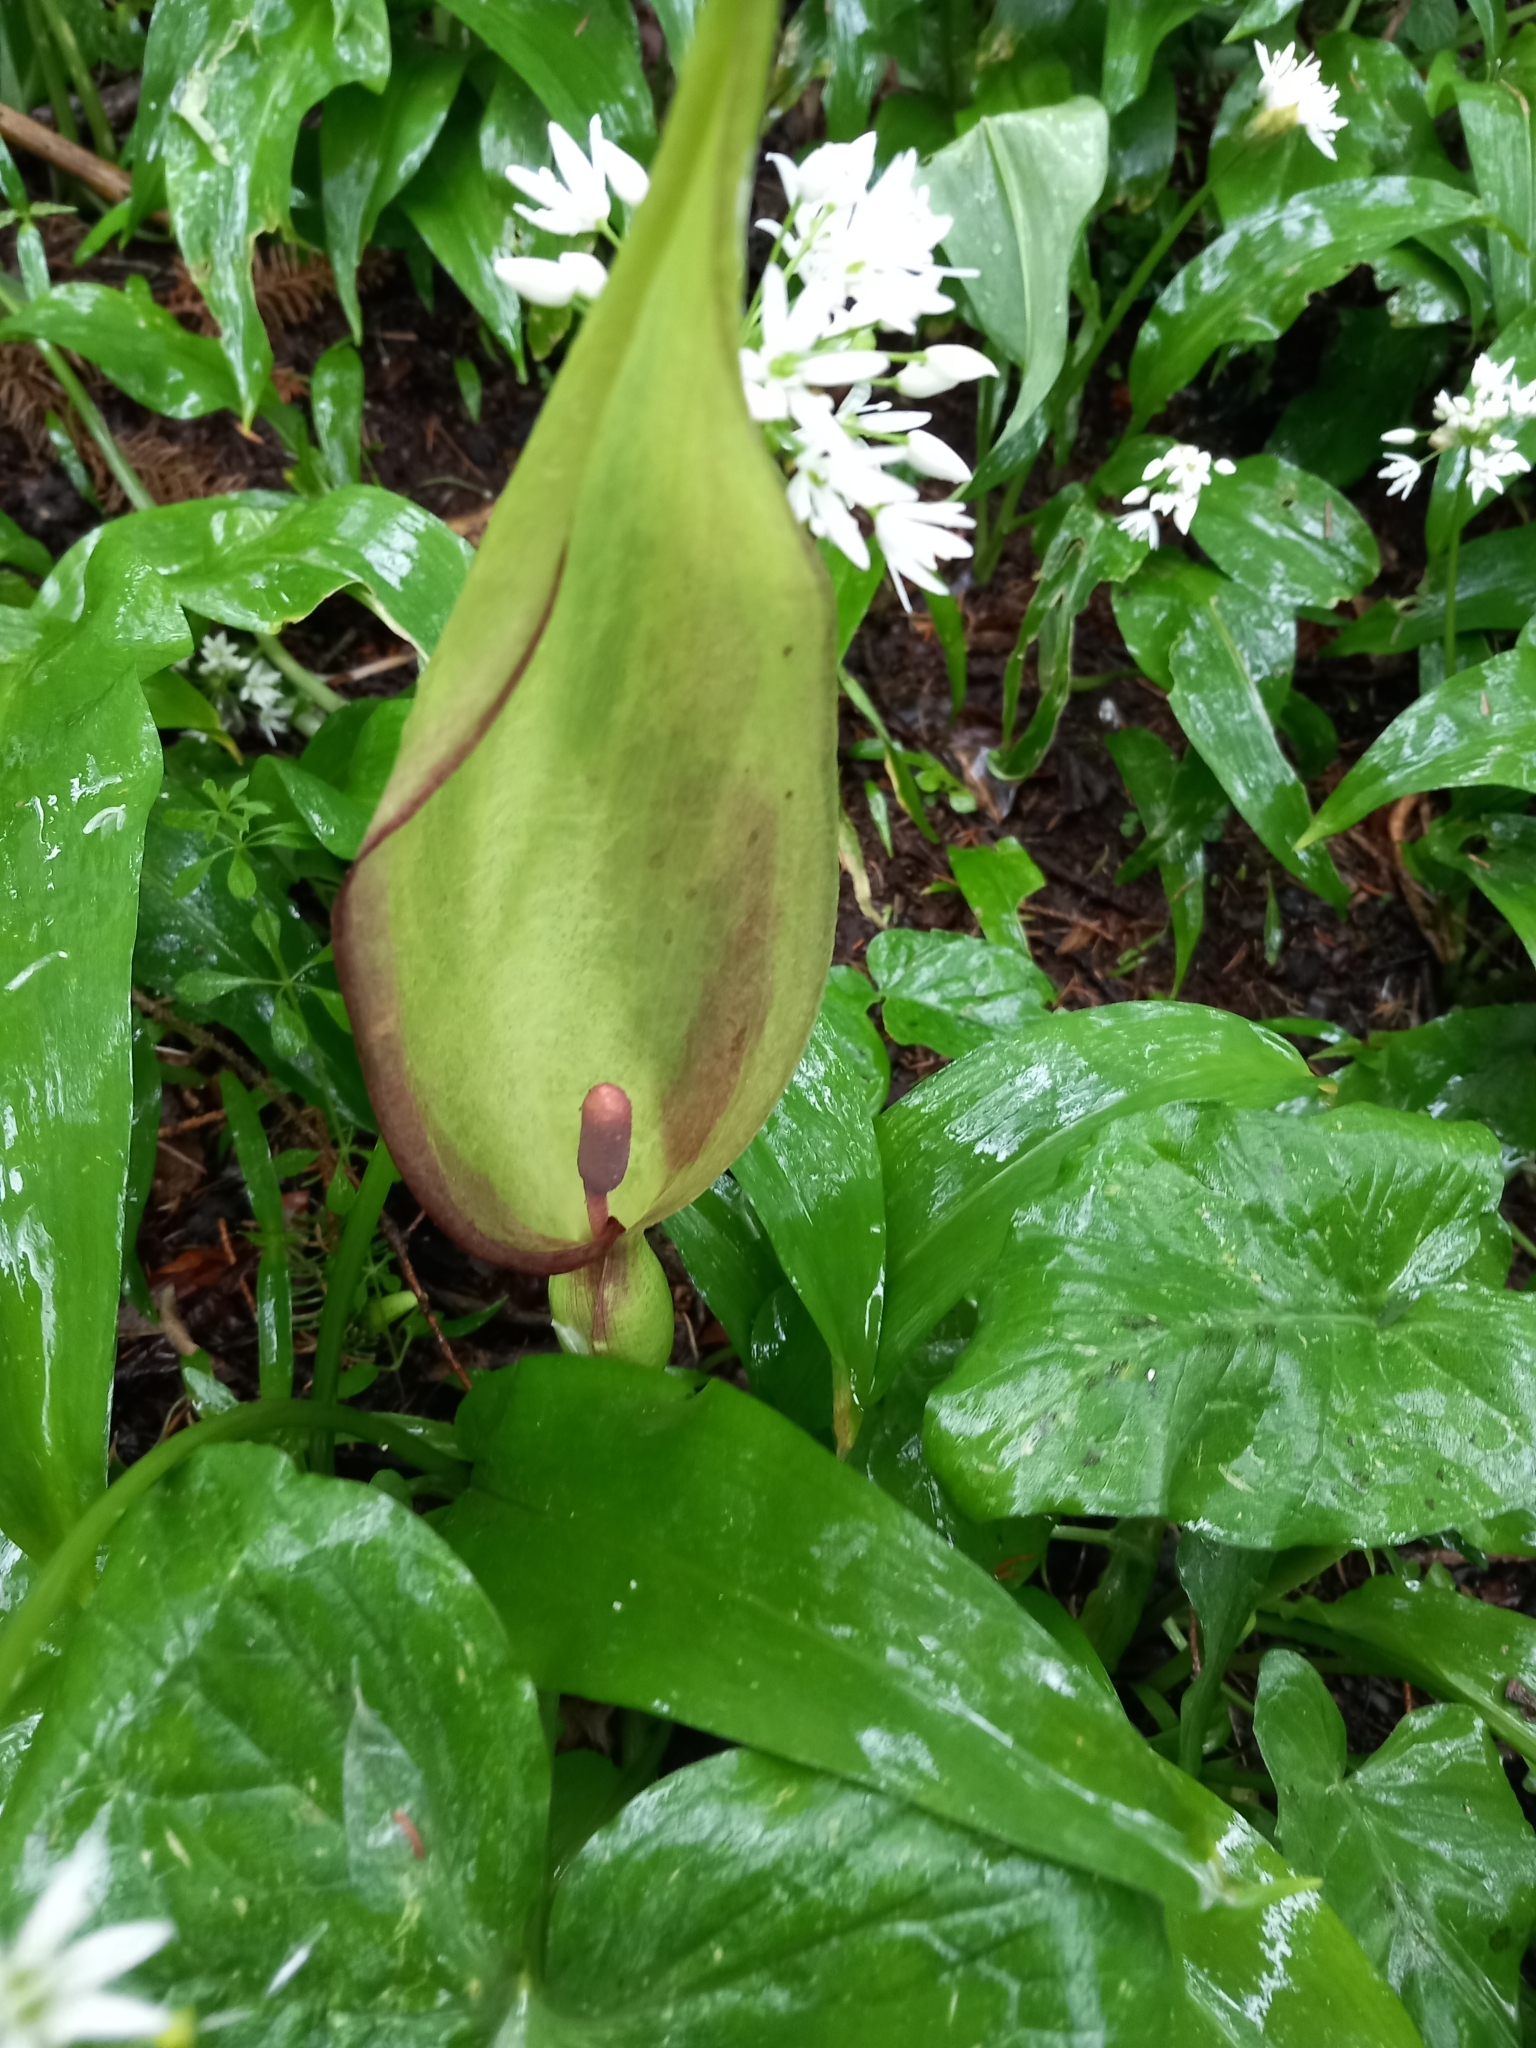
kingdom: Plantae
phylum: Tracheophyta
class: Liliopsida
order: Alismatales
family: Araceae
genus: Arum
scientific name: Arum maculatum
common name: Lords-and-ladies
